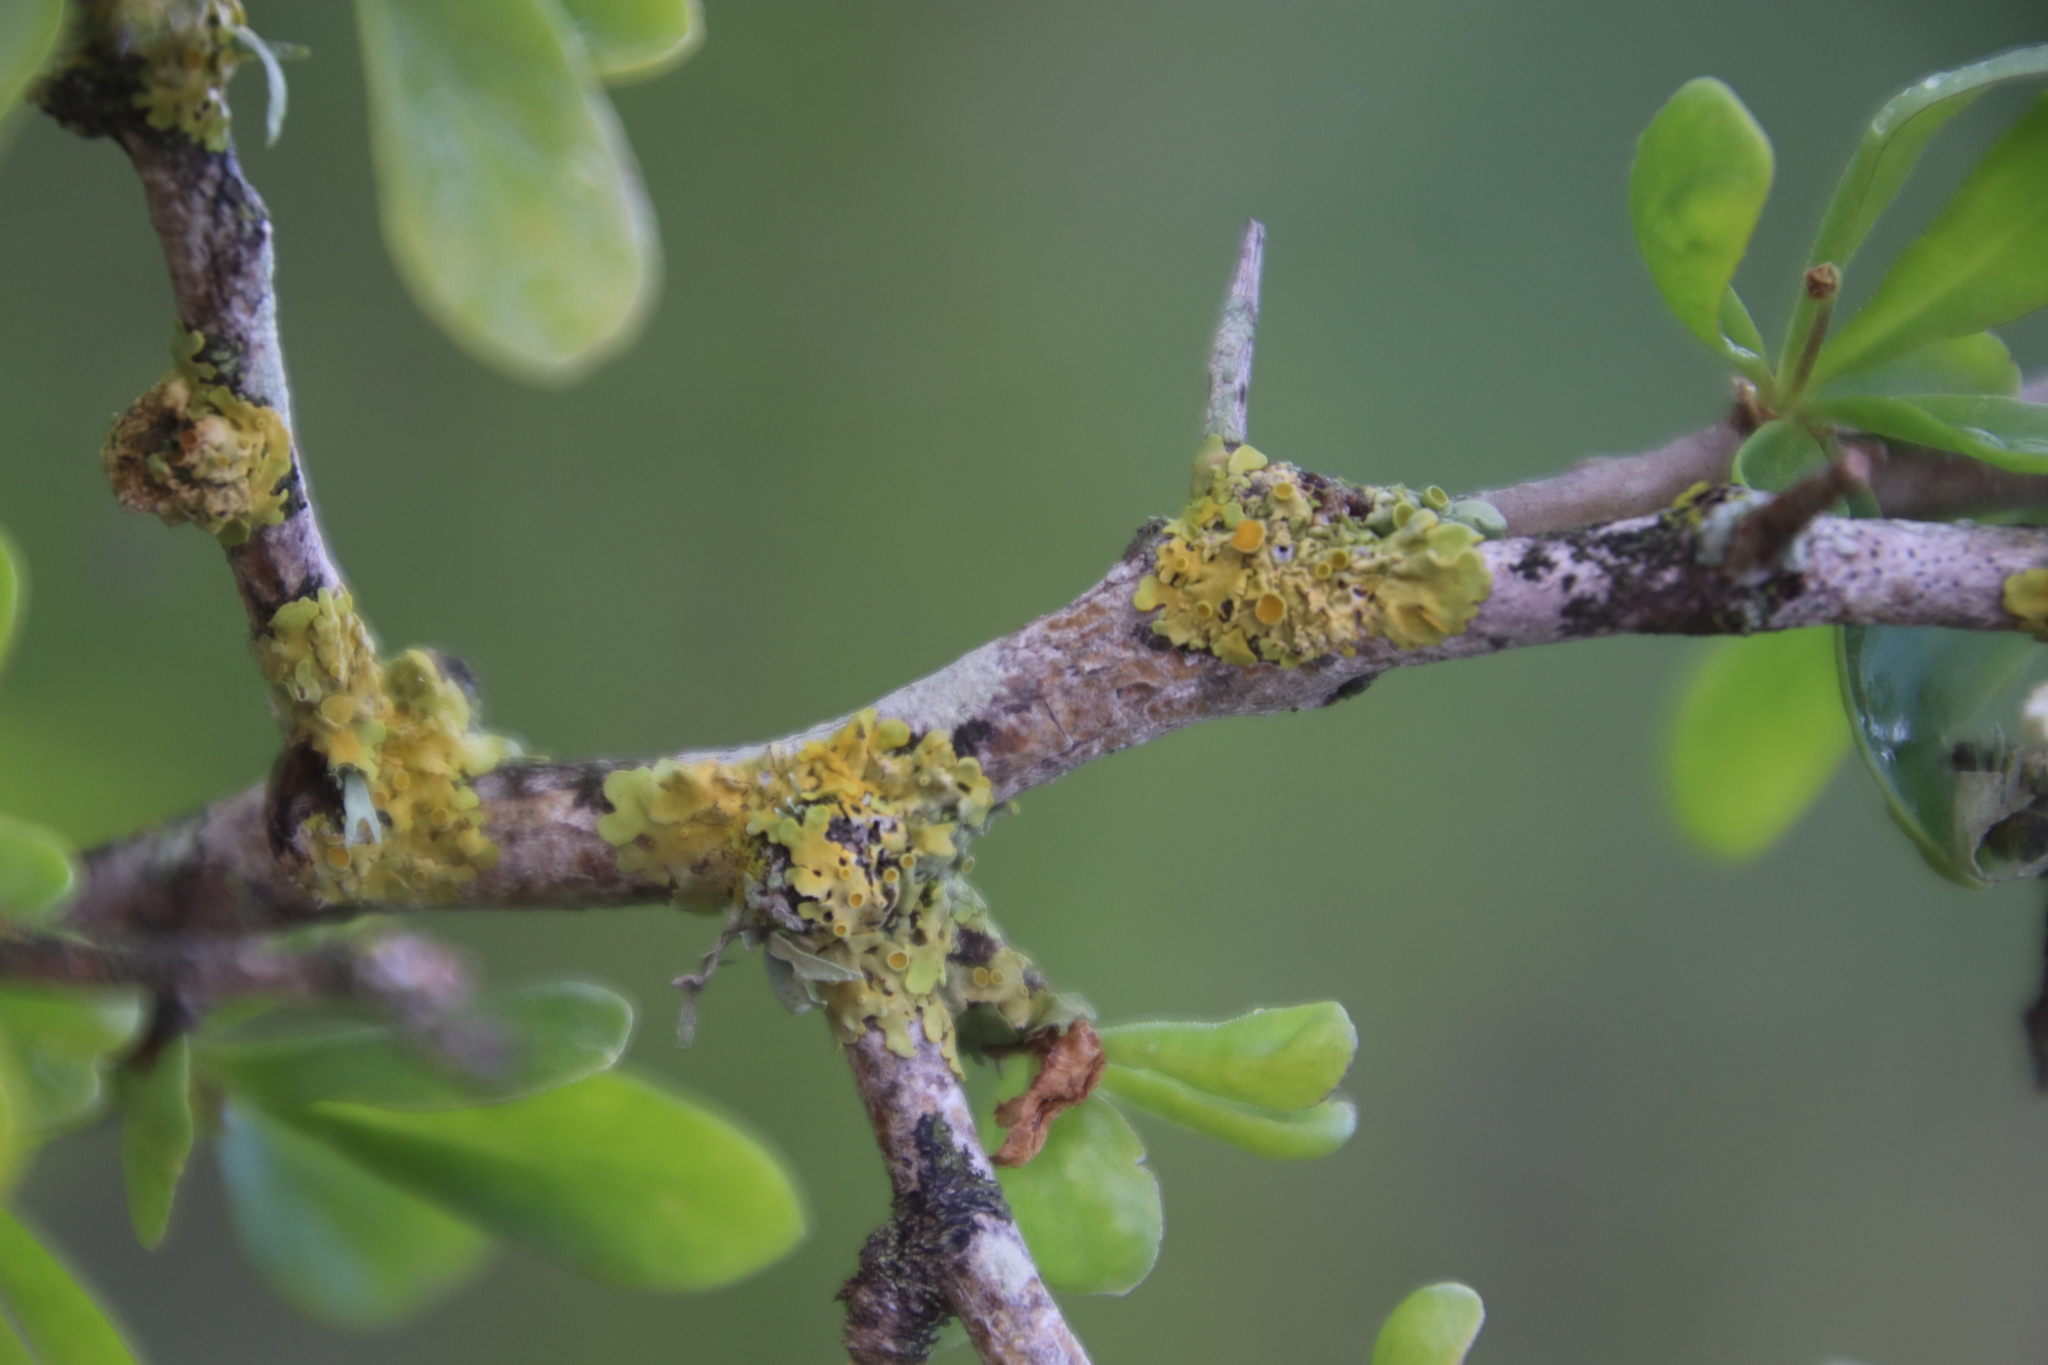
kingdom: Fungi
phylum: Ascomycota
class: Lecanoromycetes
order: Teloschistales
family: Teloschistaceae
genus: Xanthoria
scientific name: Xanthoria parietina
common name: Common orange lichen
